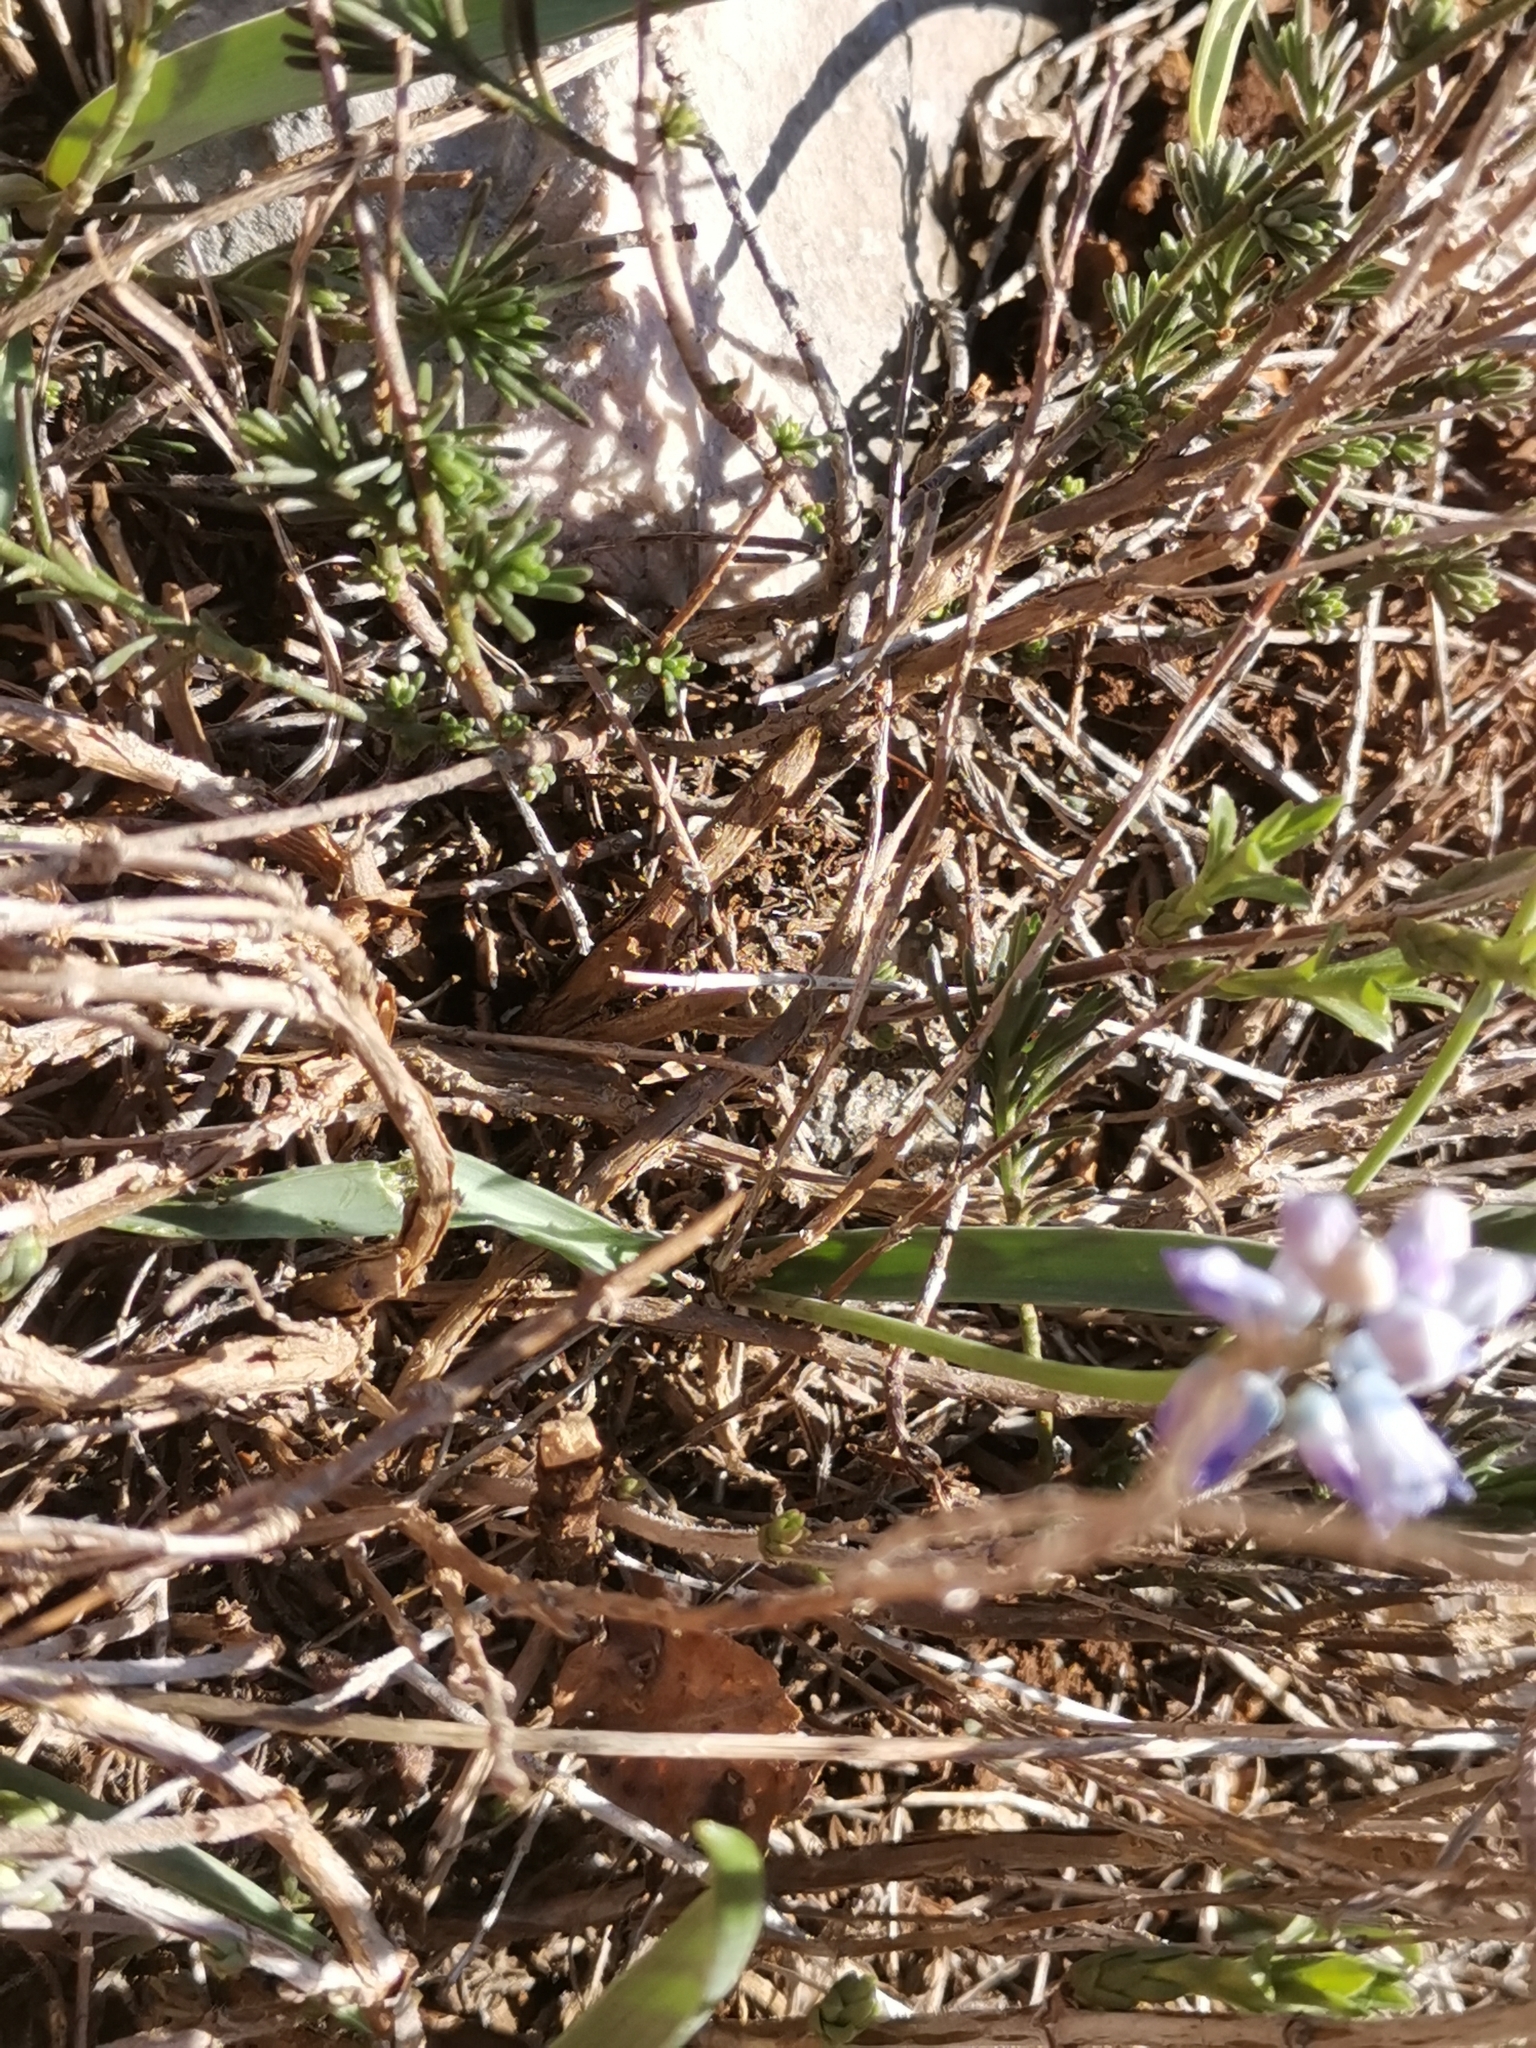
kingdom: Plantae
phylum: Tracheophyta
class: Liliopsida
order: Asparagales
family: Asparagaceae
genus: Hyacinthella
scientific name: Hyacinthella dalmatica
